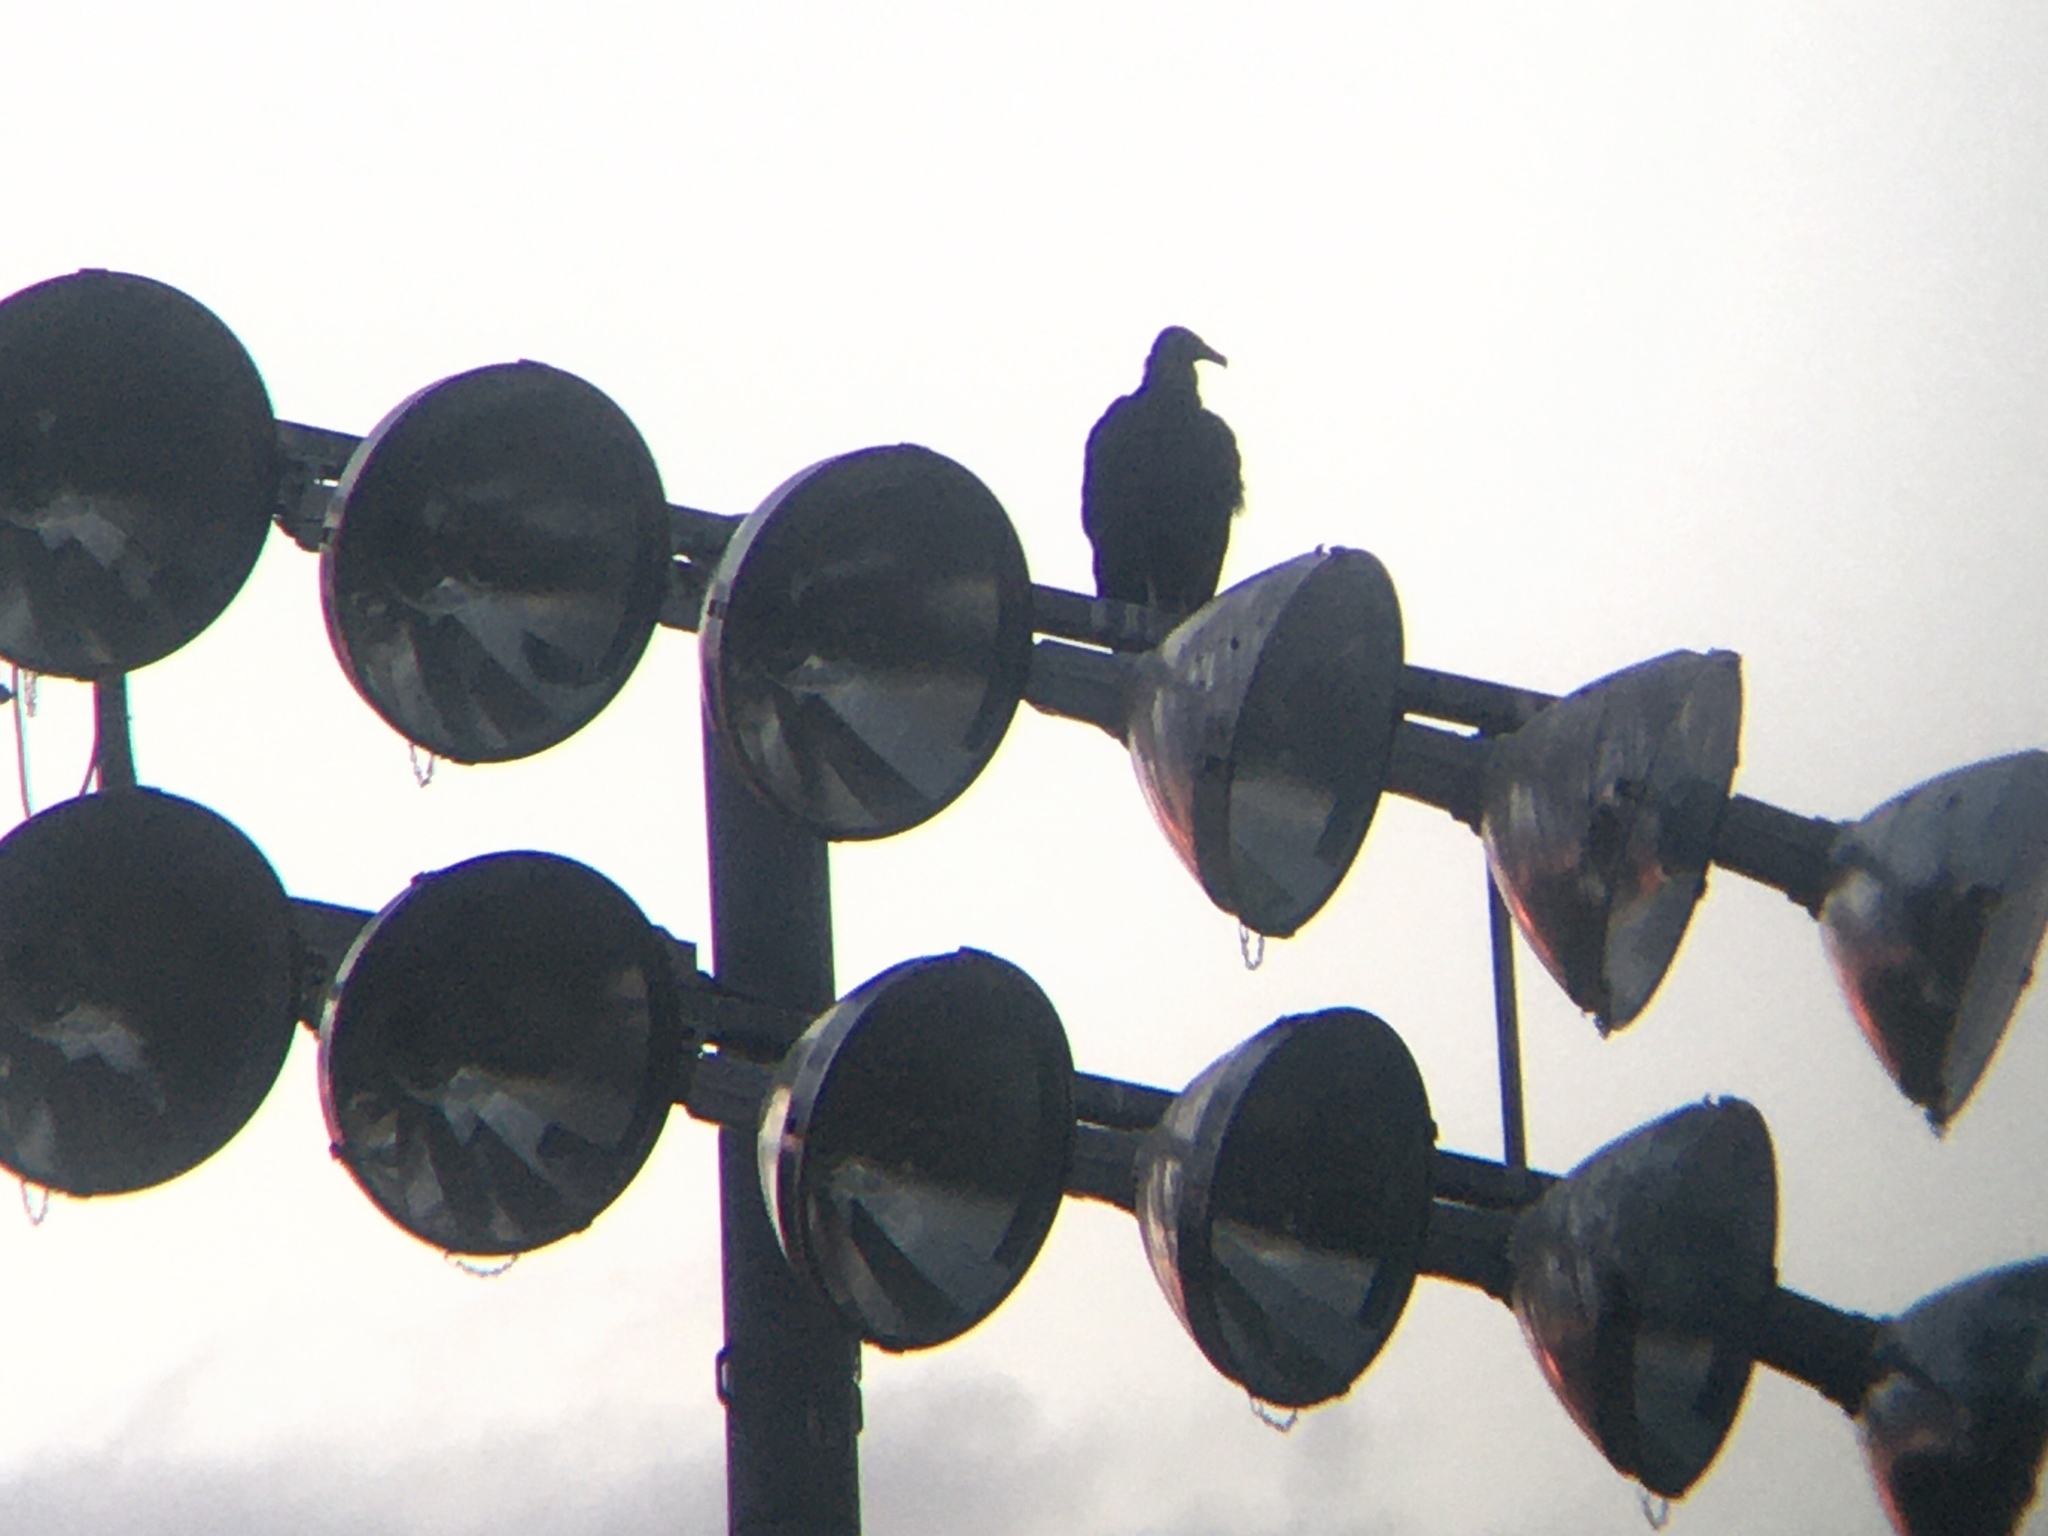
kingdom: Animalia
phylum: Chordata
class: Aves
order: Accipitriformes
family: Cathartidae
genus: Coragyps
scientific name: Coragyps atratus
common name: Black vulture
